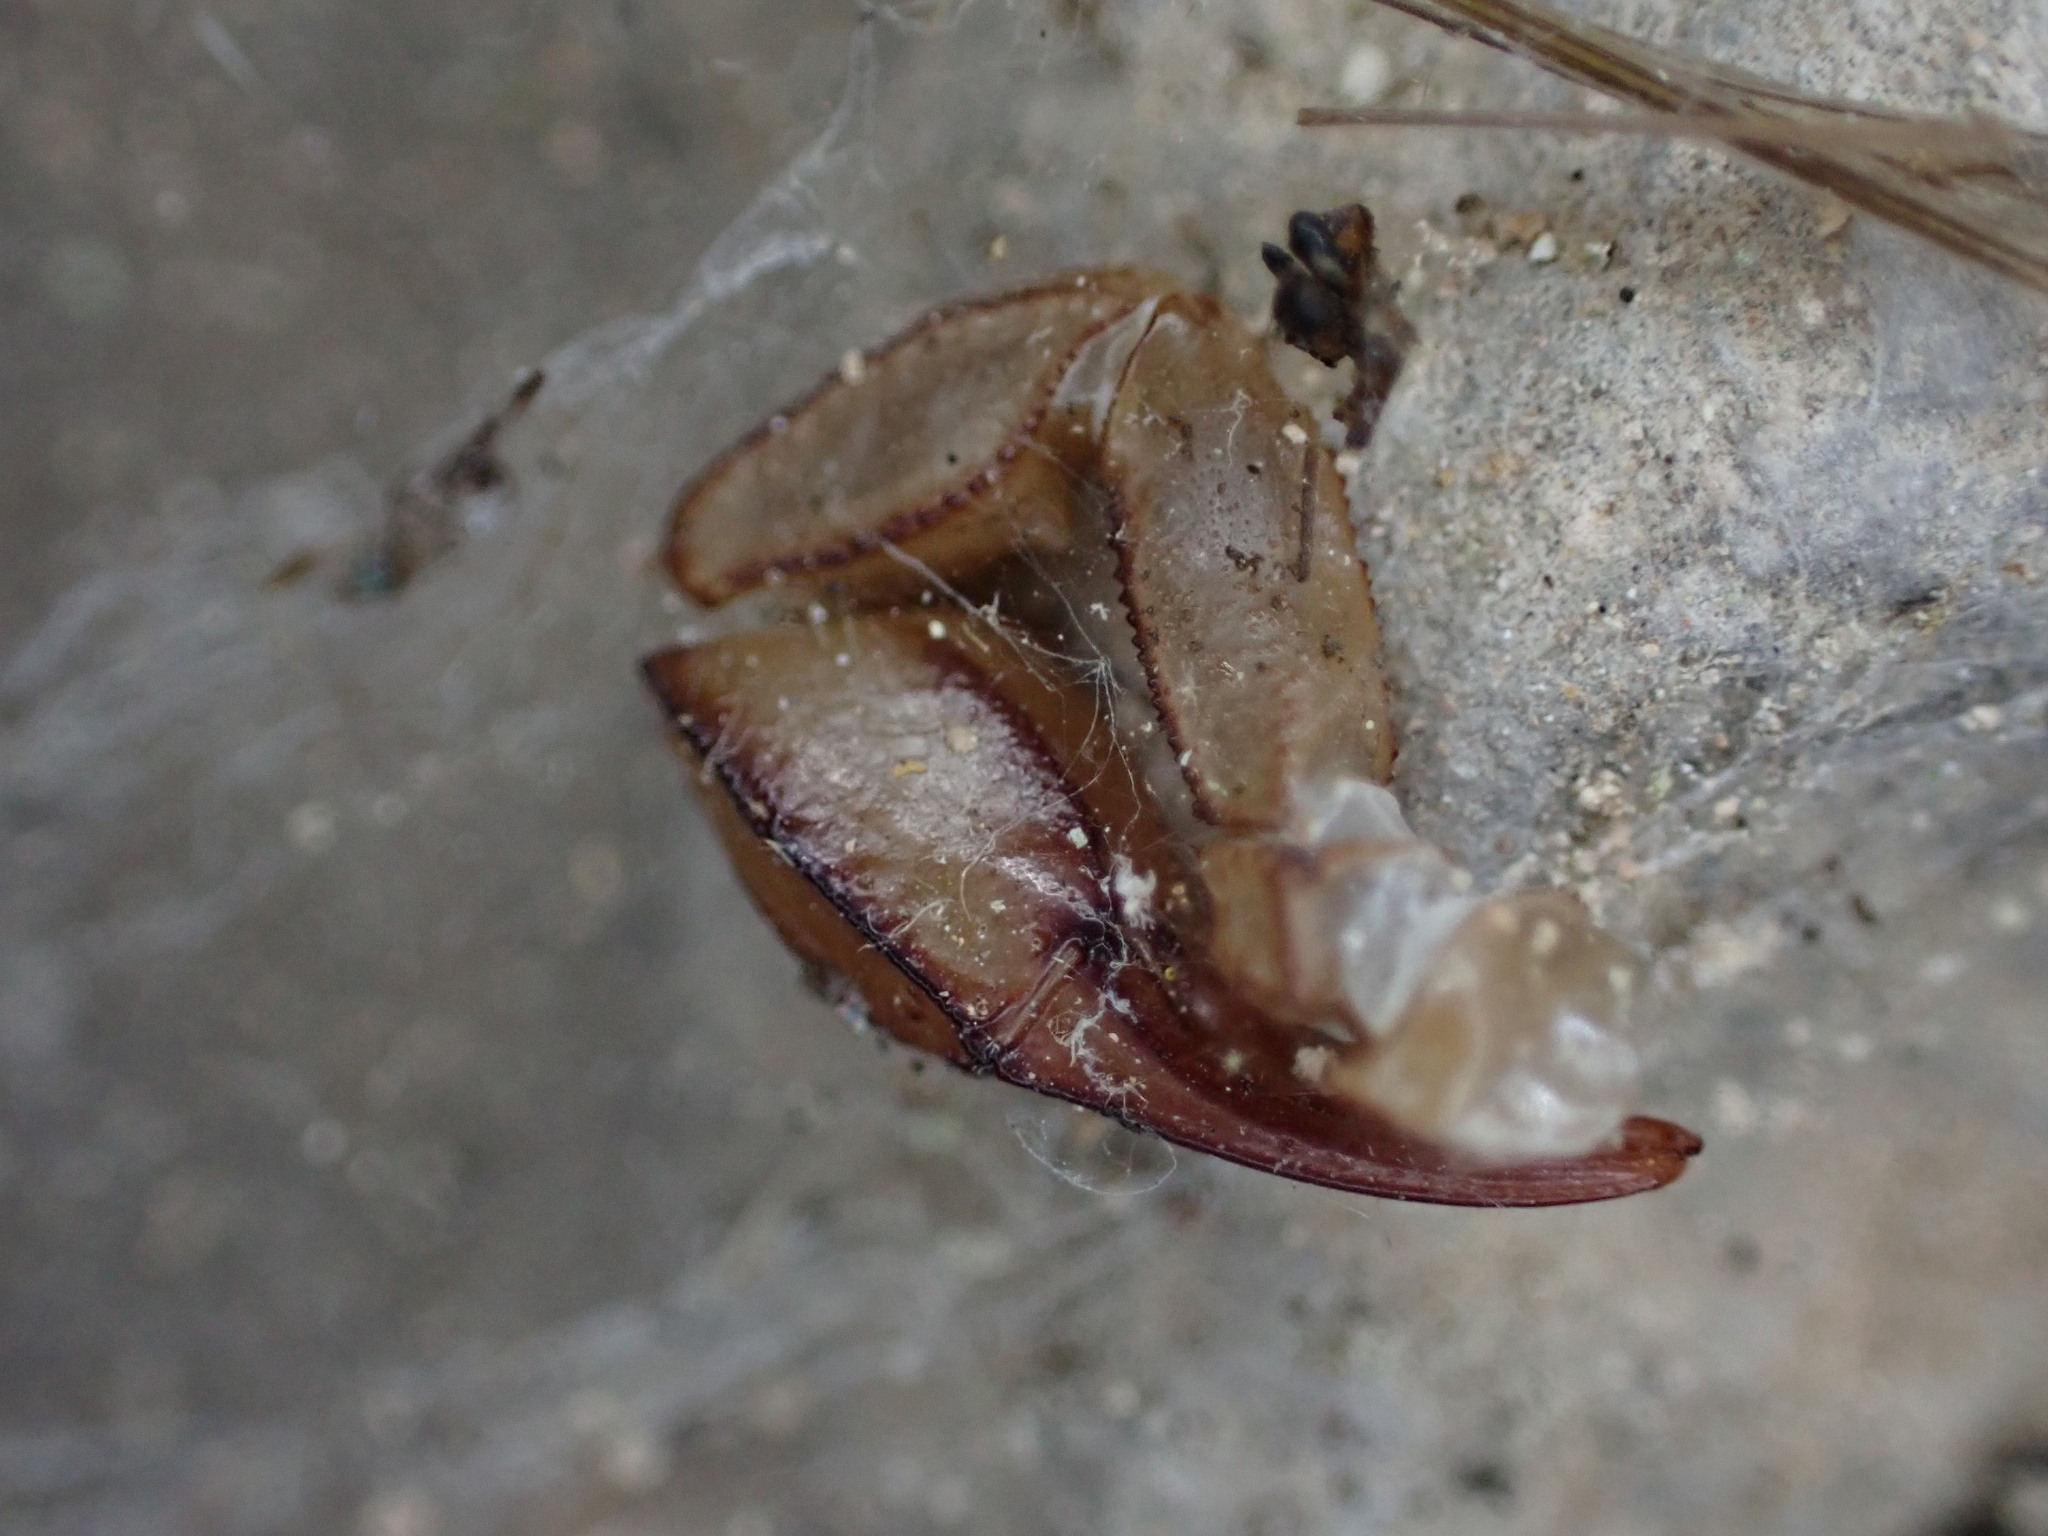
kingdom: Animalia
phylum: Arthropoda
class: Arachnida
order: Scorpiones
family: Euscorpiidae
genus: Euscorpius
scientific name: Euscorpius flavicaudis
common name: European yellow-tailed scorpion
